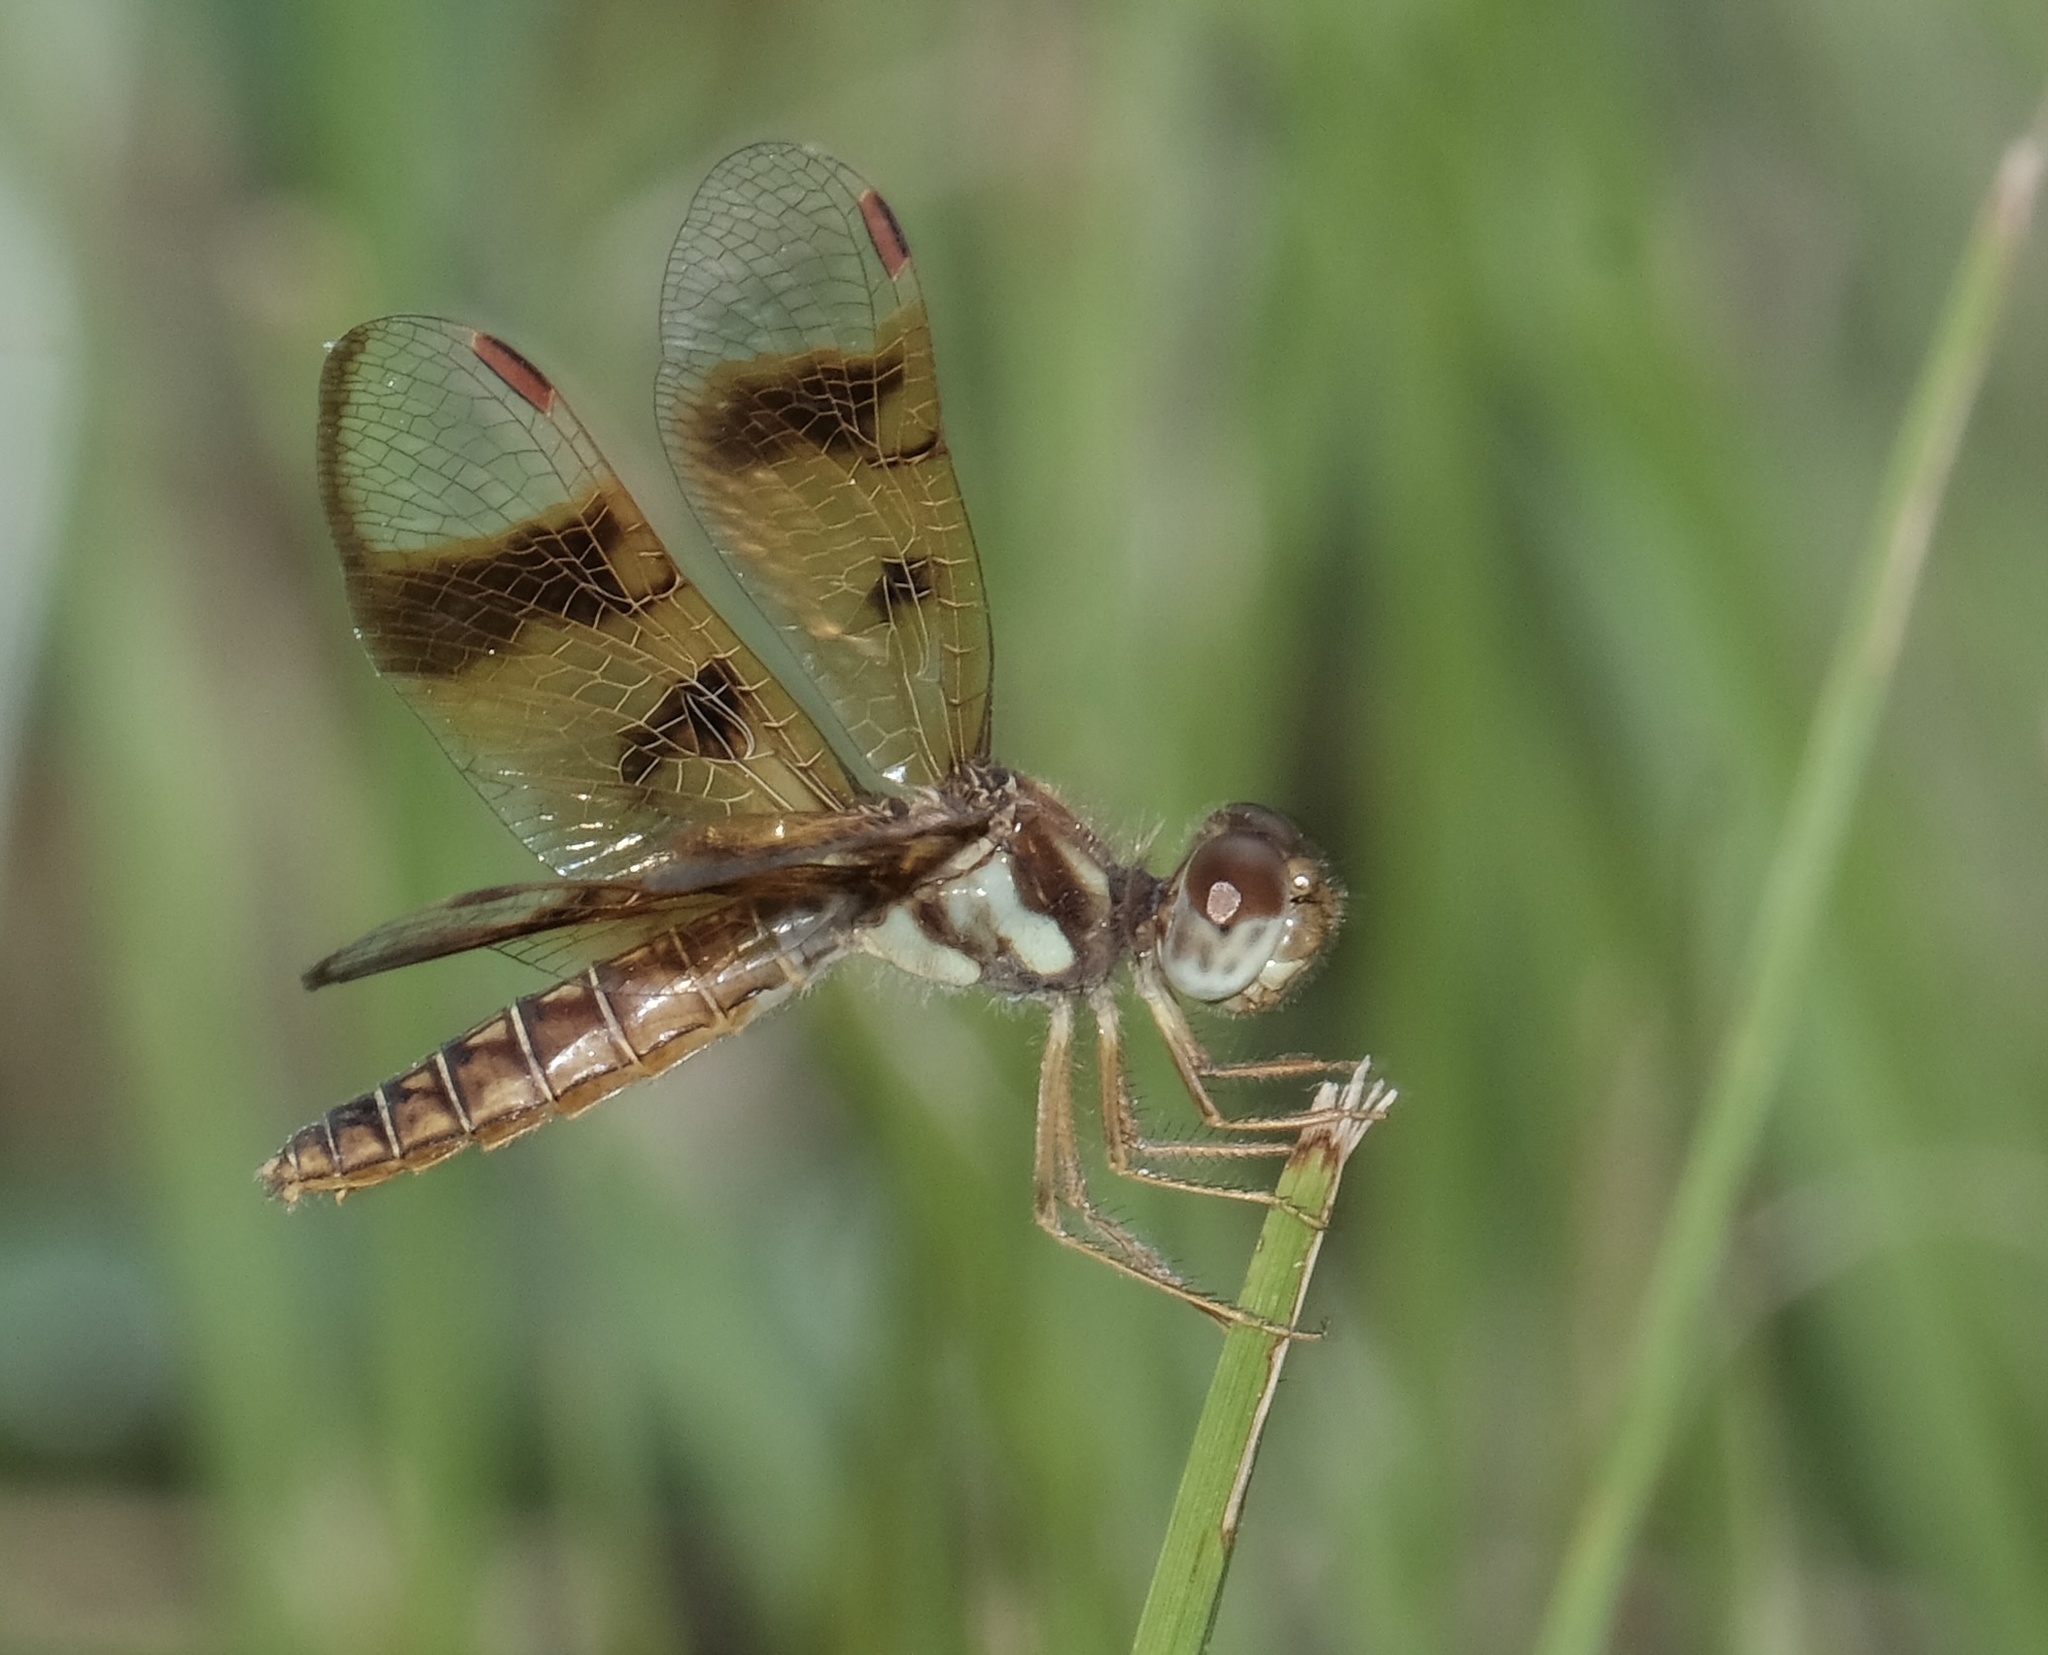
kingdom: Animalia
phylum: Arthropoda
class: Insecta
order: Odonata
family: Libellulidae
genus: Perithemis
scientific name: Perithemis tenera
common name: Eastern amberwing
